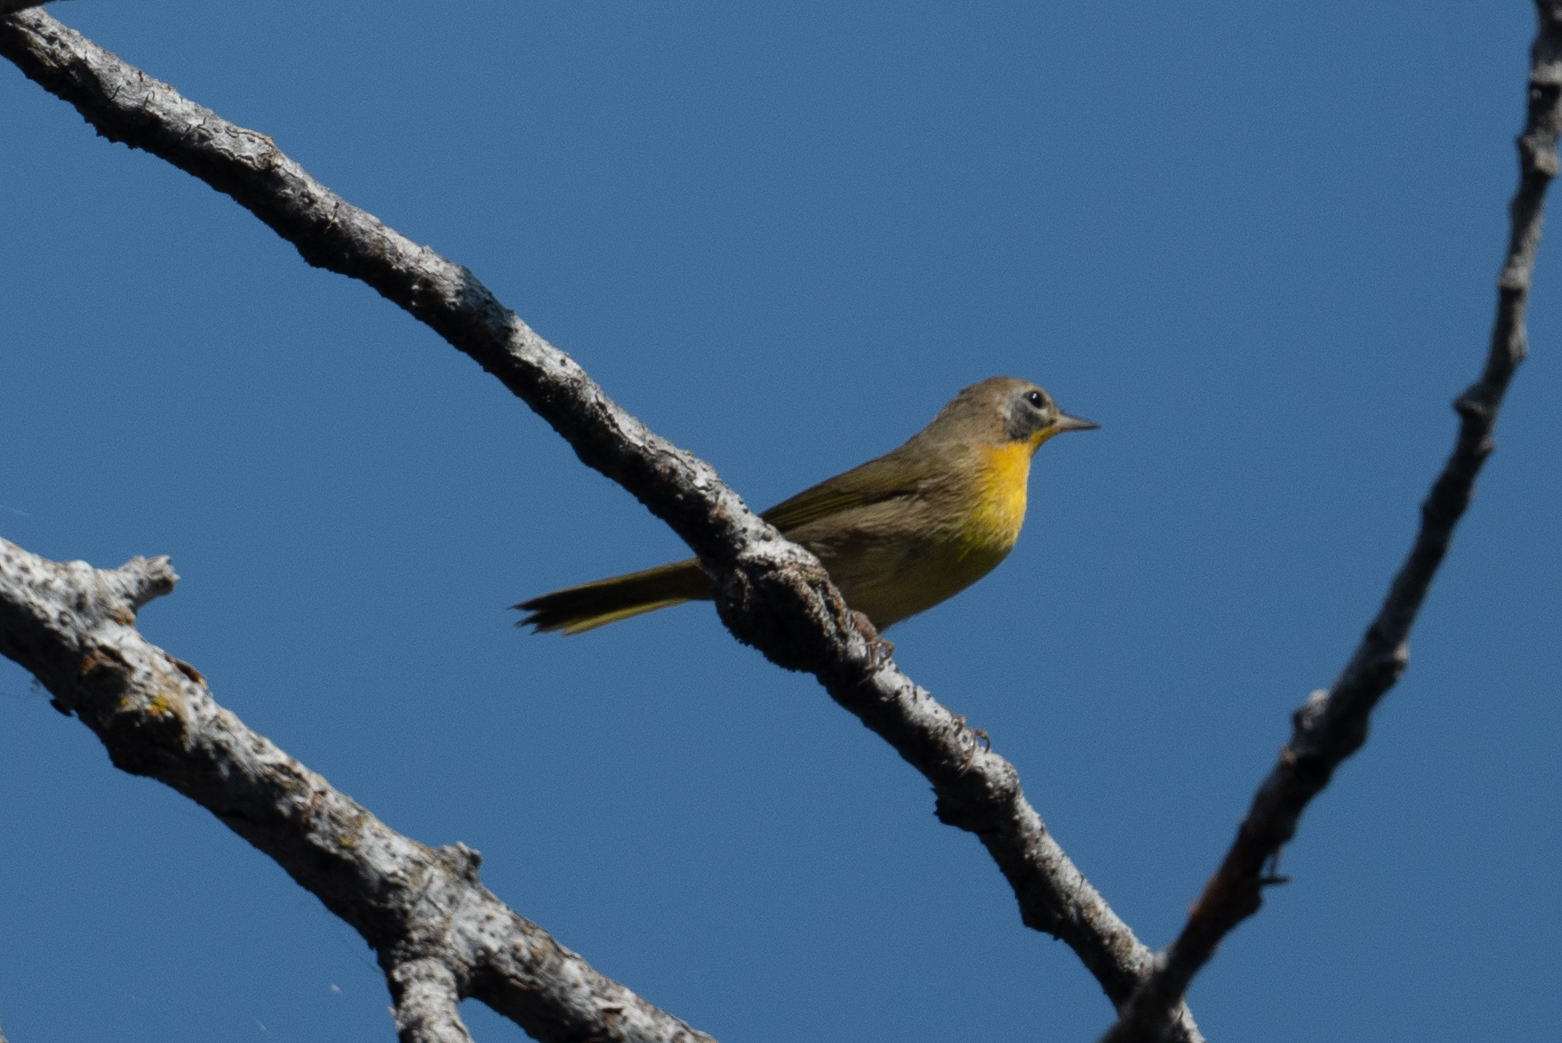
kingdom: Animalia
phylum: Chordata
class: Aves
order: Passeriformes
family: Parulidae
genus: Geothlypis
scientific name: Geothlypis trichas
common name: Common yellowthroat
